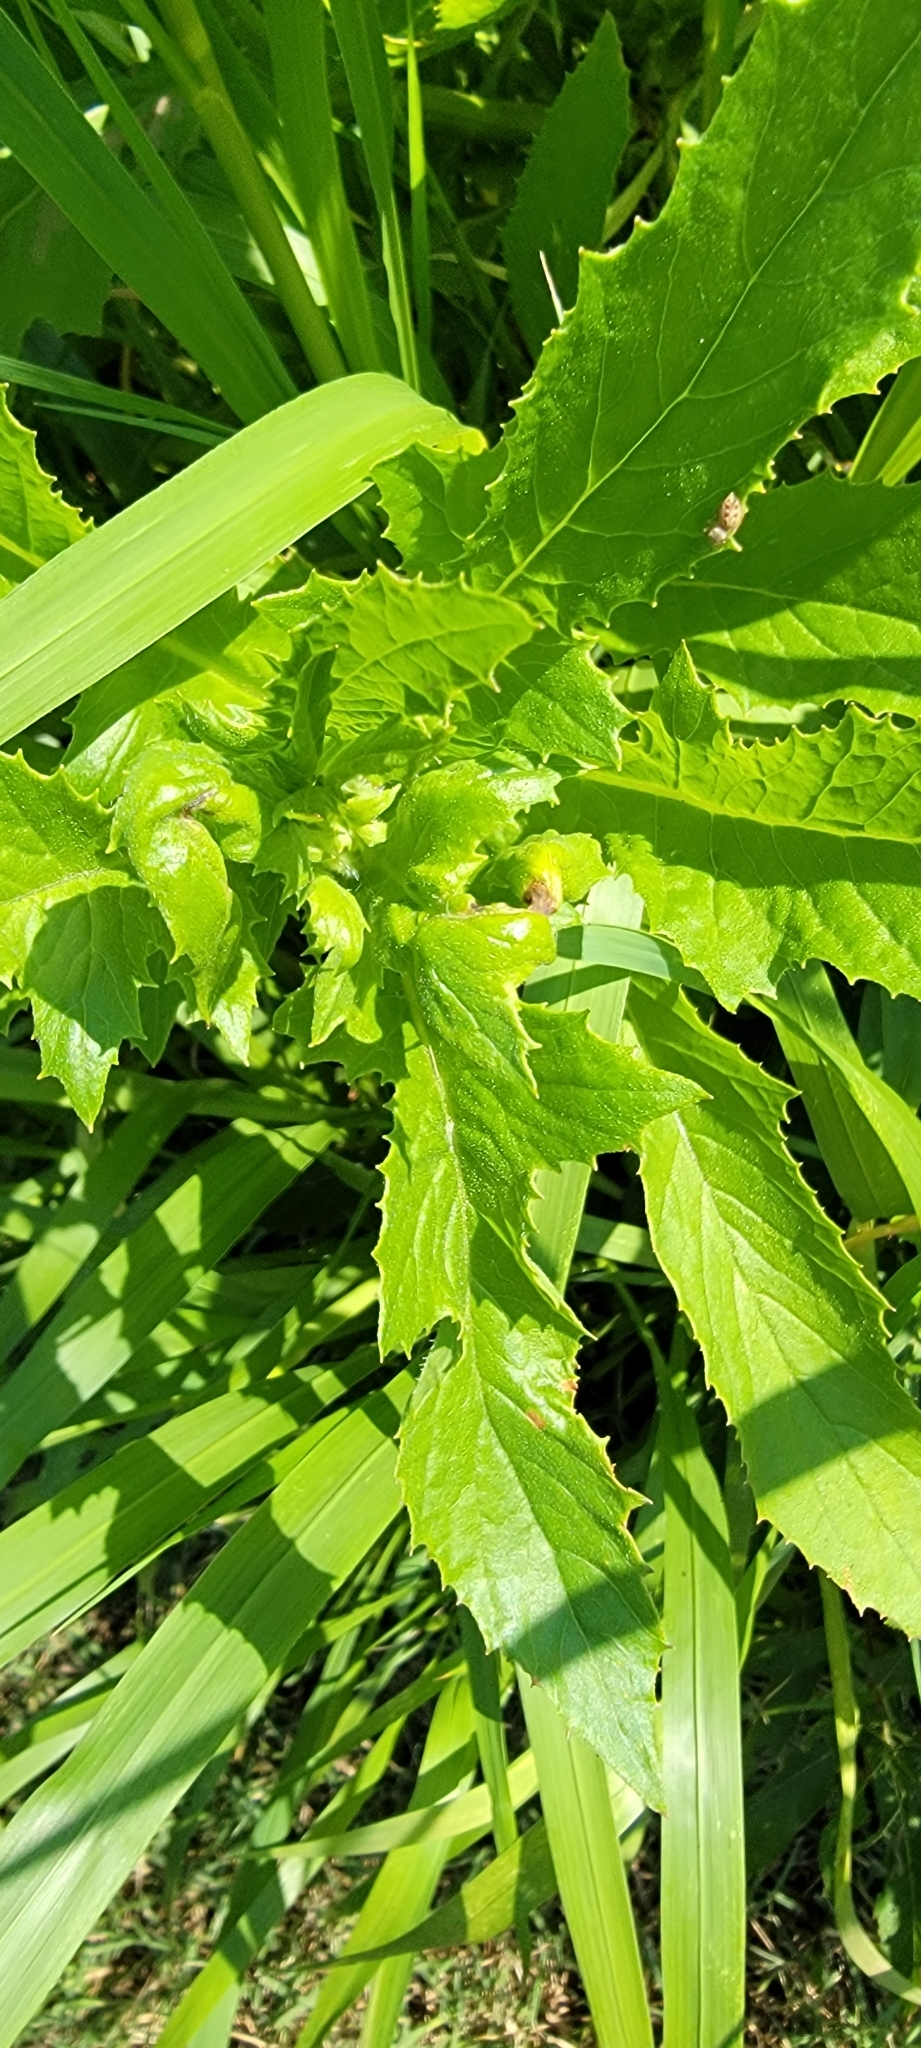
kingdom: Plantae
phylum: Tracheophyta
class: Magnoliopsida
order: Asterales
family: Asteraceae
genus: Erechtites
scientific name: Erechtites hieraciifolius
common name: American burnweed
